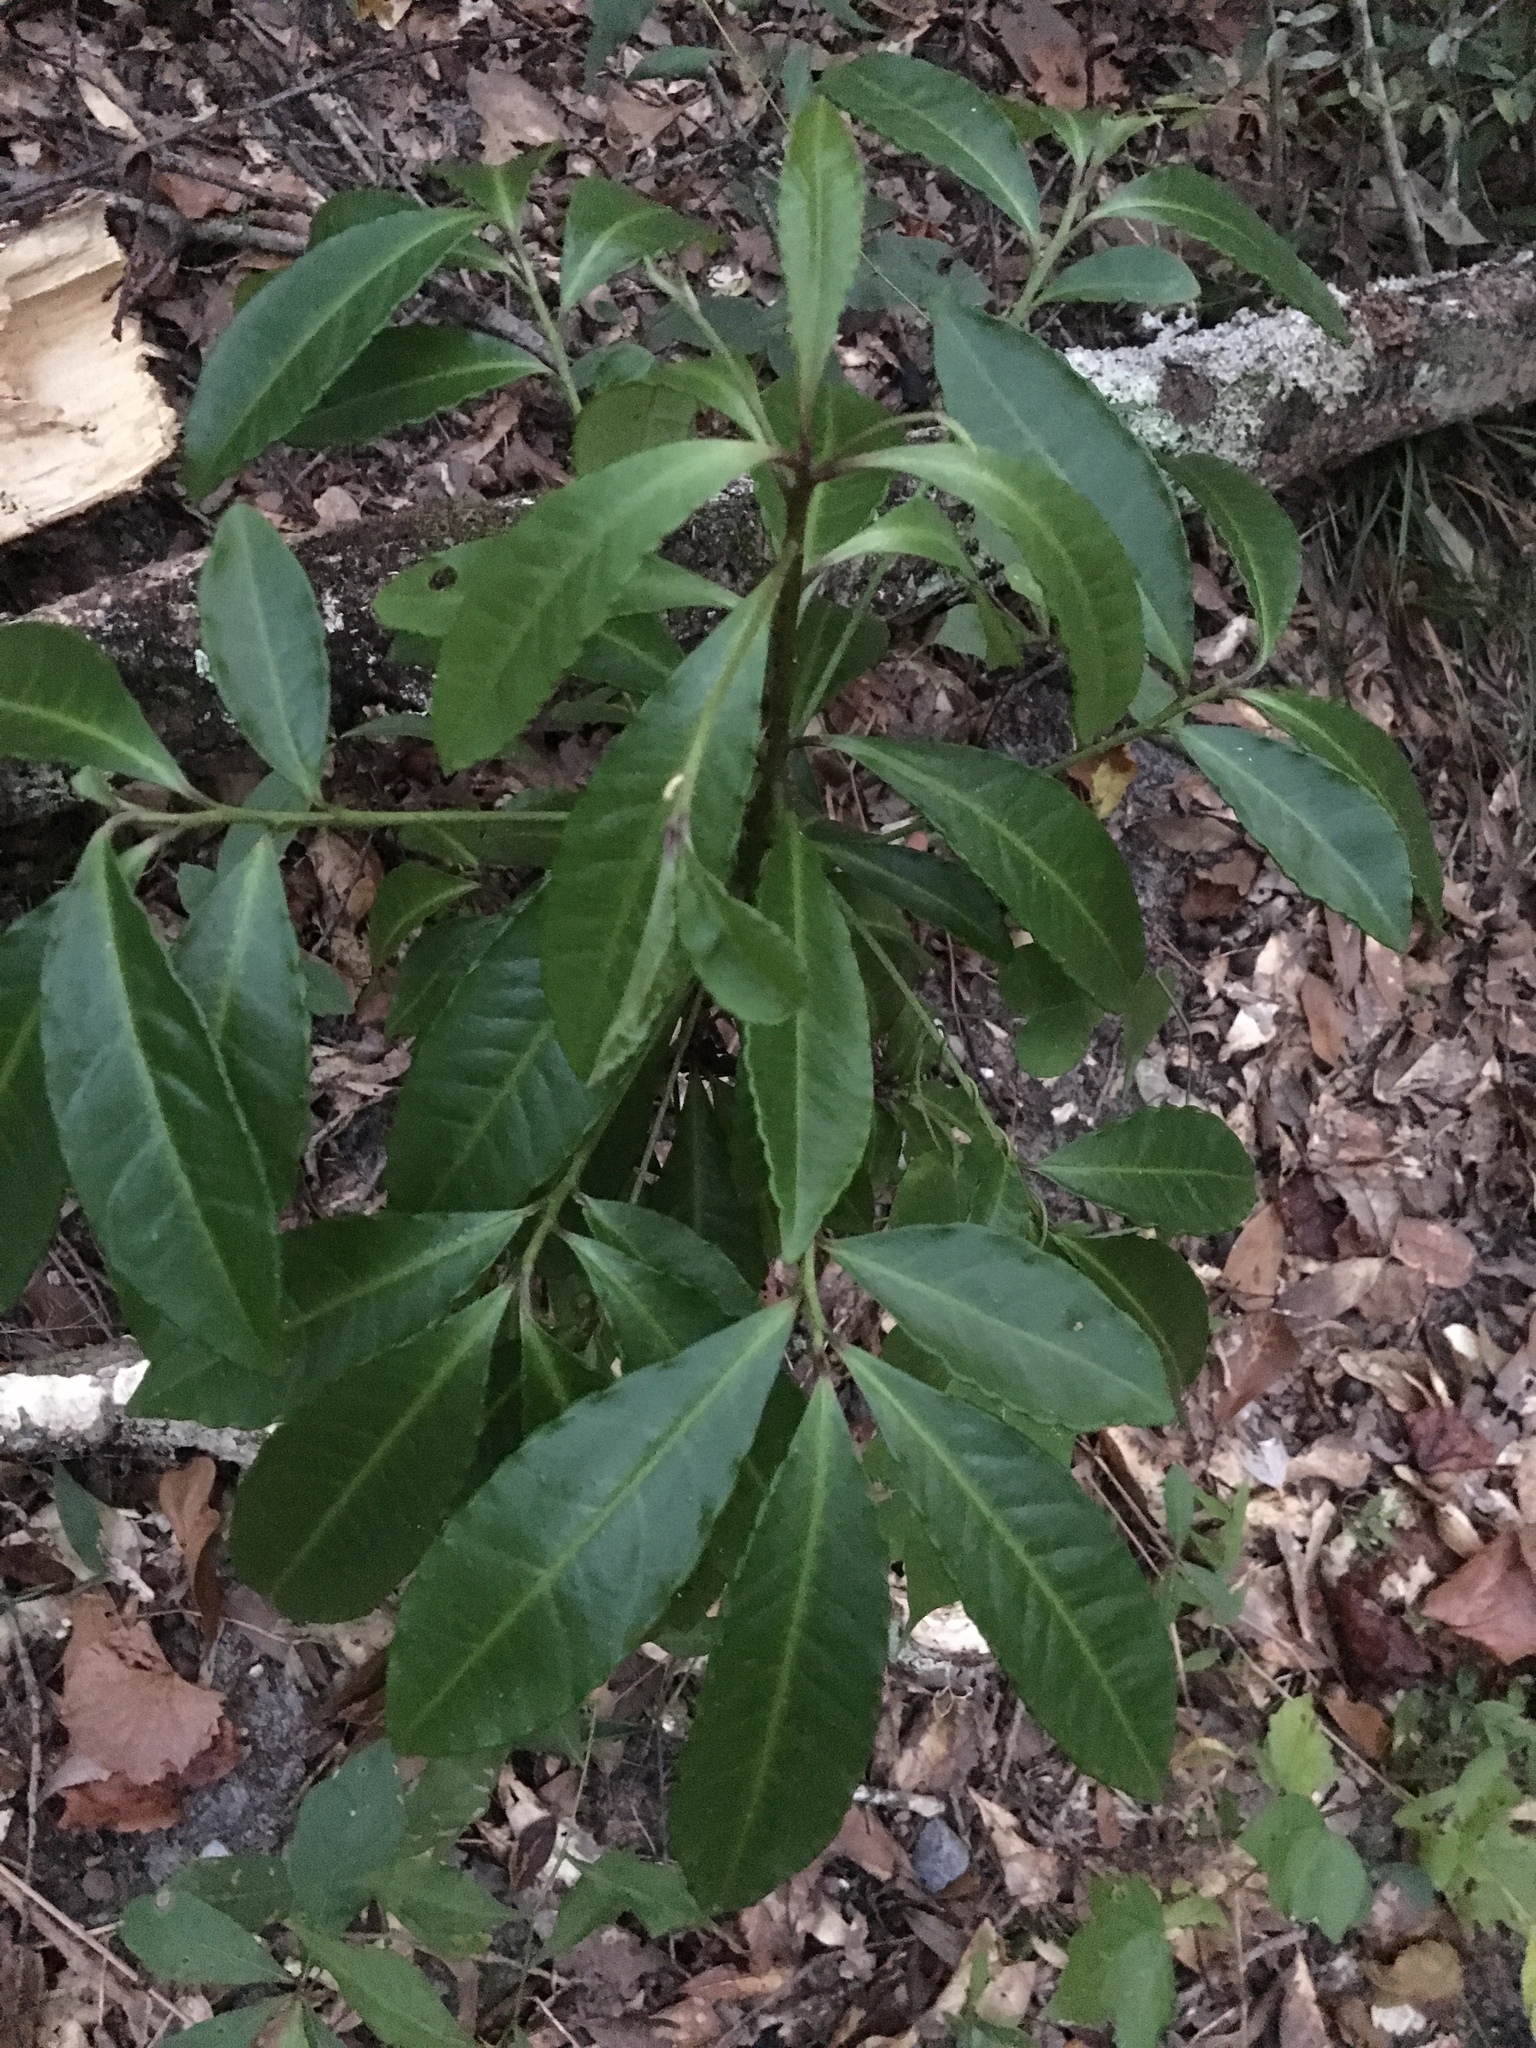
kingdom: Plantae
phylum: Tracheophyta
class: Magnoliopsida
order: Ericales
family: Primulaceae
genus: Ardisia
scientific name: Ardisia crenata
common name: Hen's eyes
